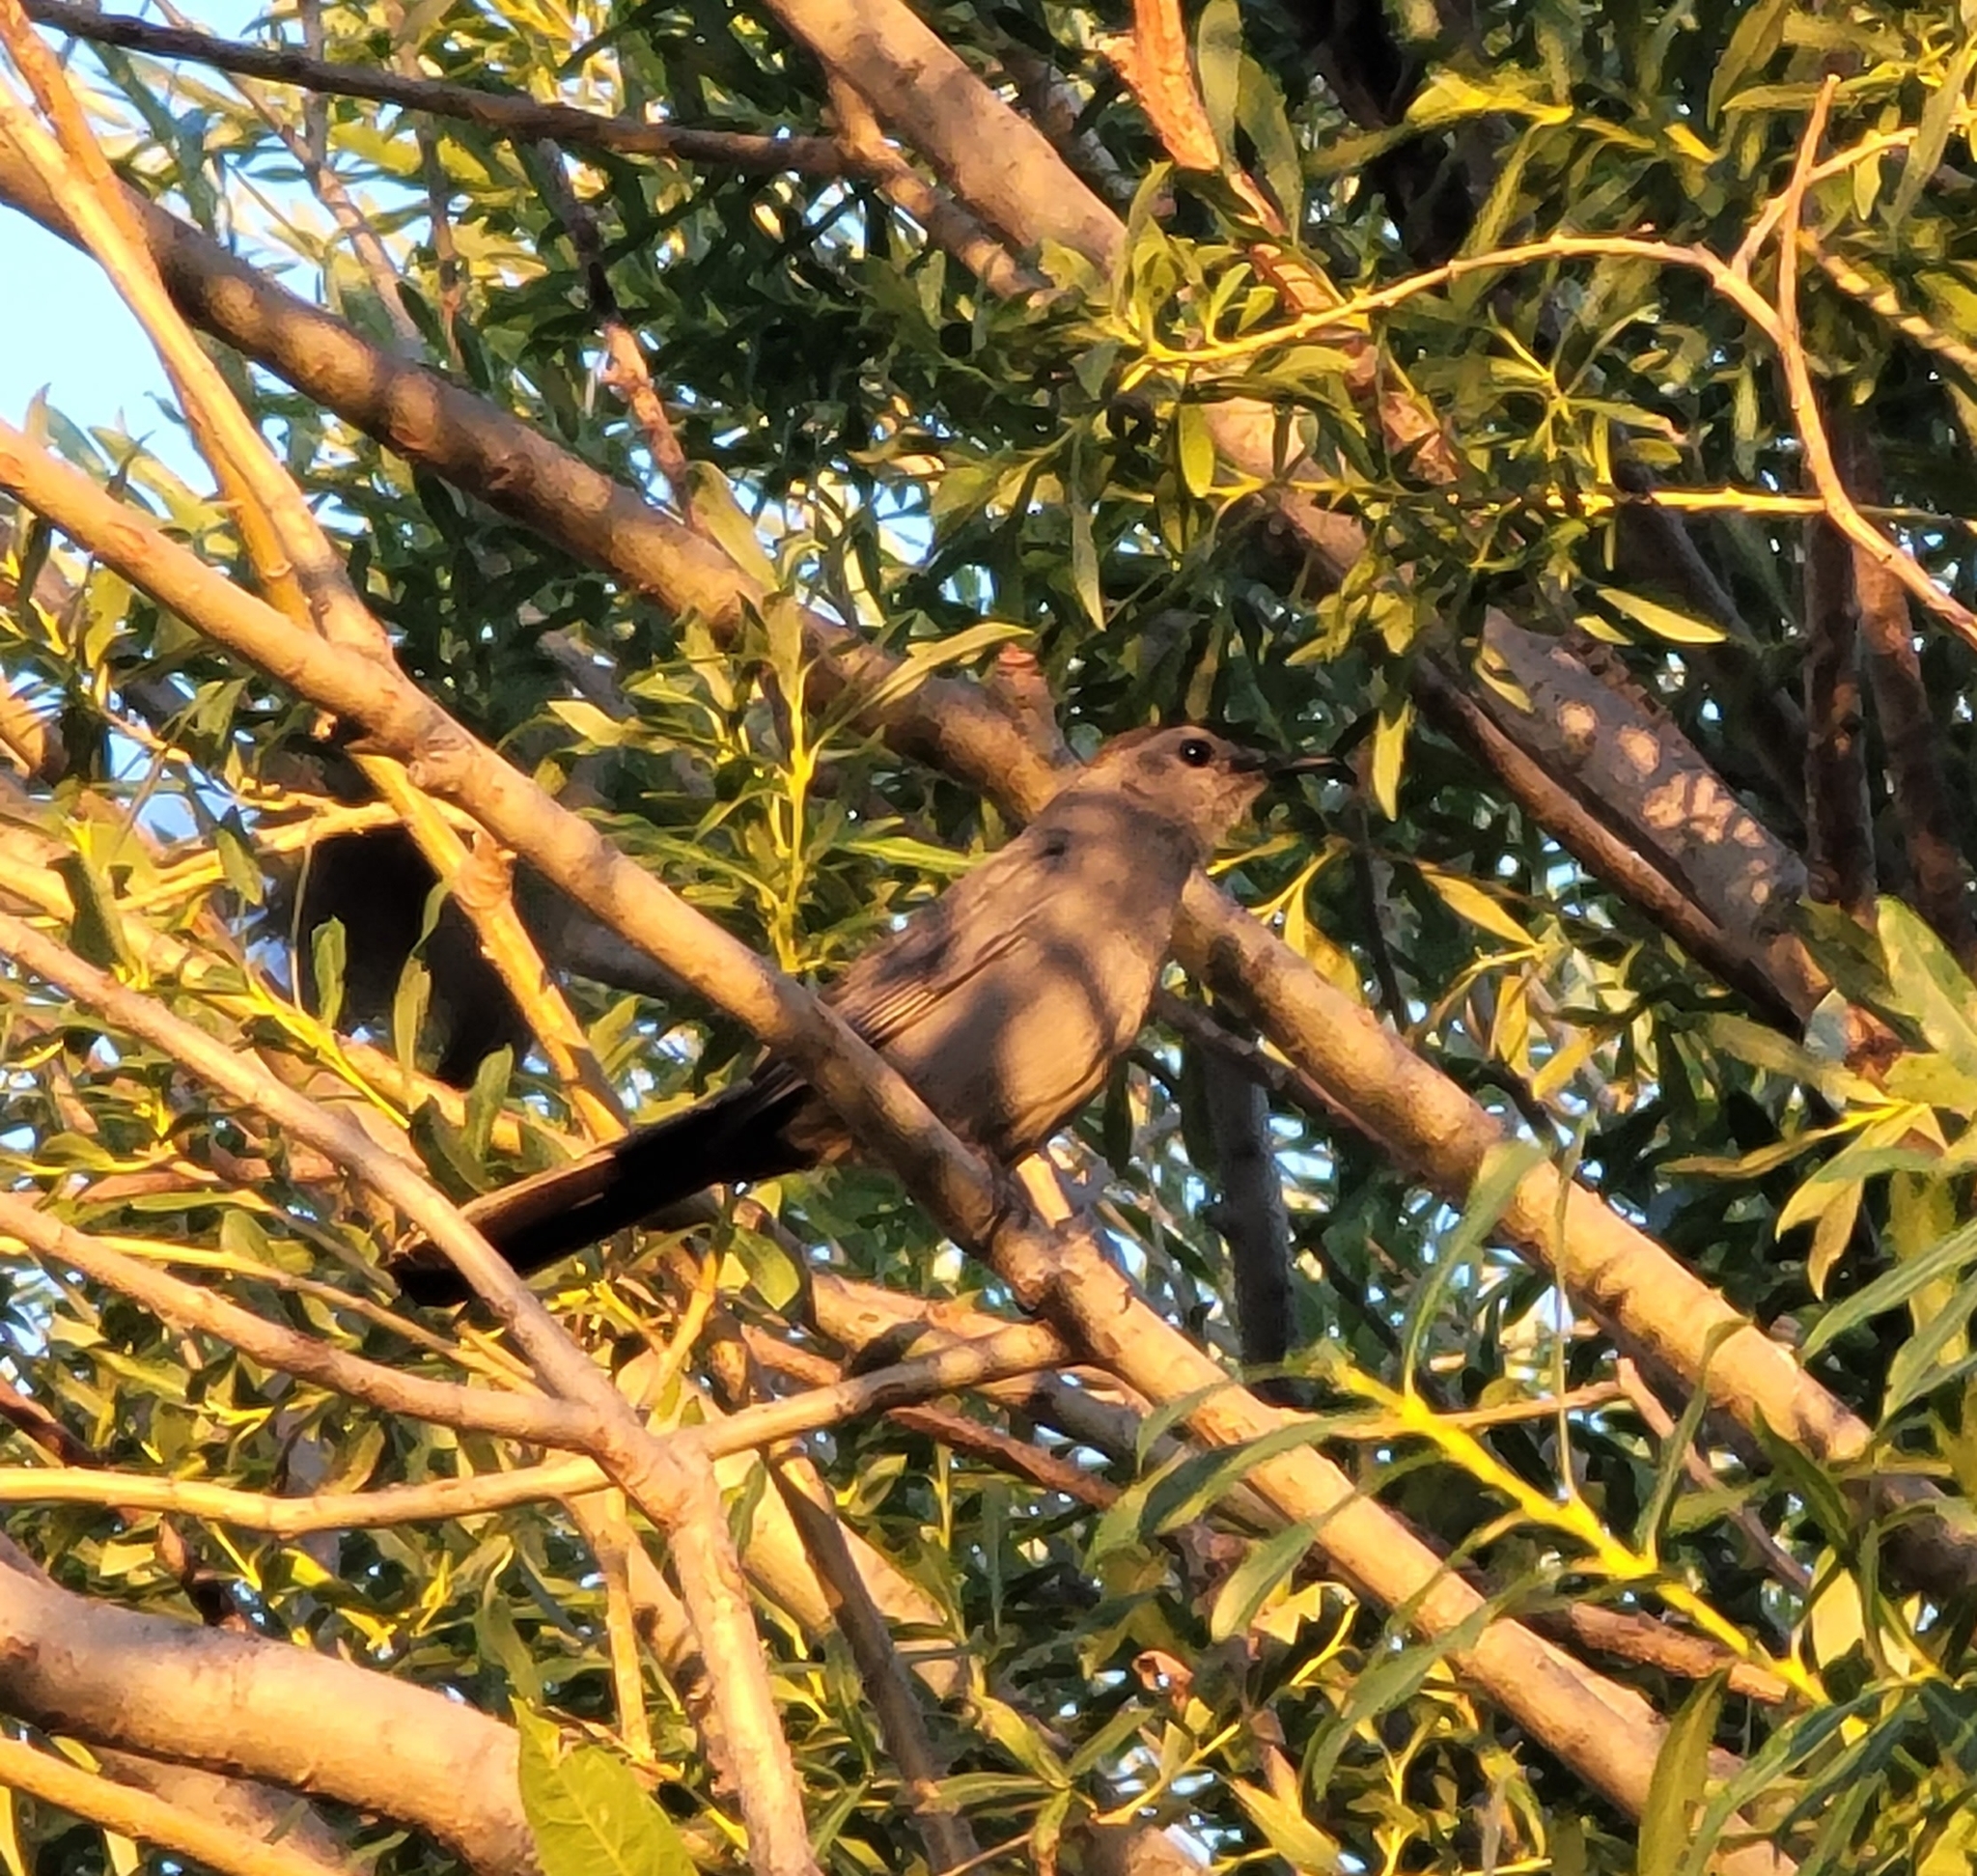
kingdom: Animalia
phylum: Chordata
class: Aves
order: Passeriformes
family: Mimidae
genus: Dumetella
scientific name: Dumetella carolinensis
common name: Gray catbird
